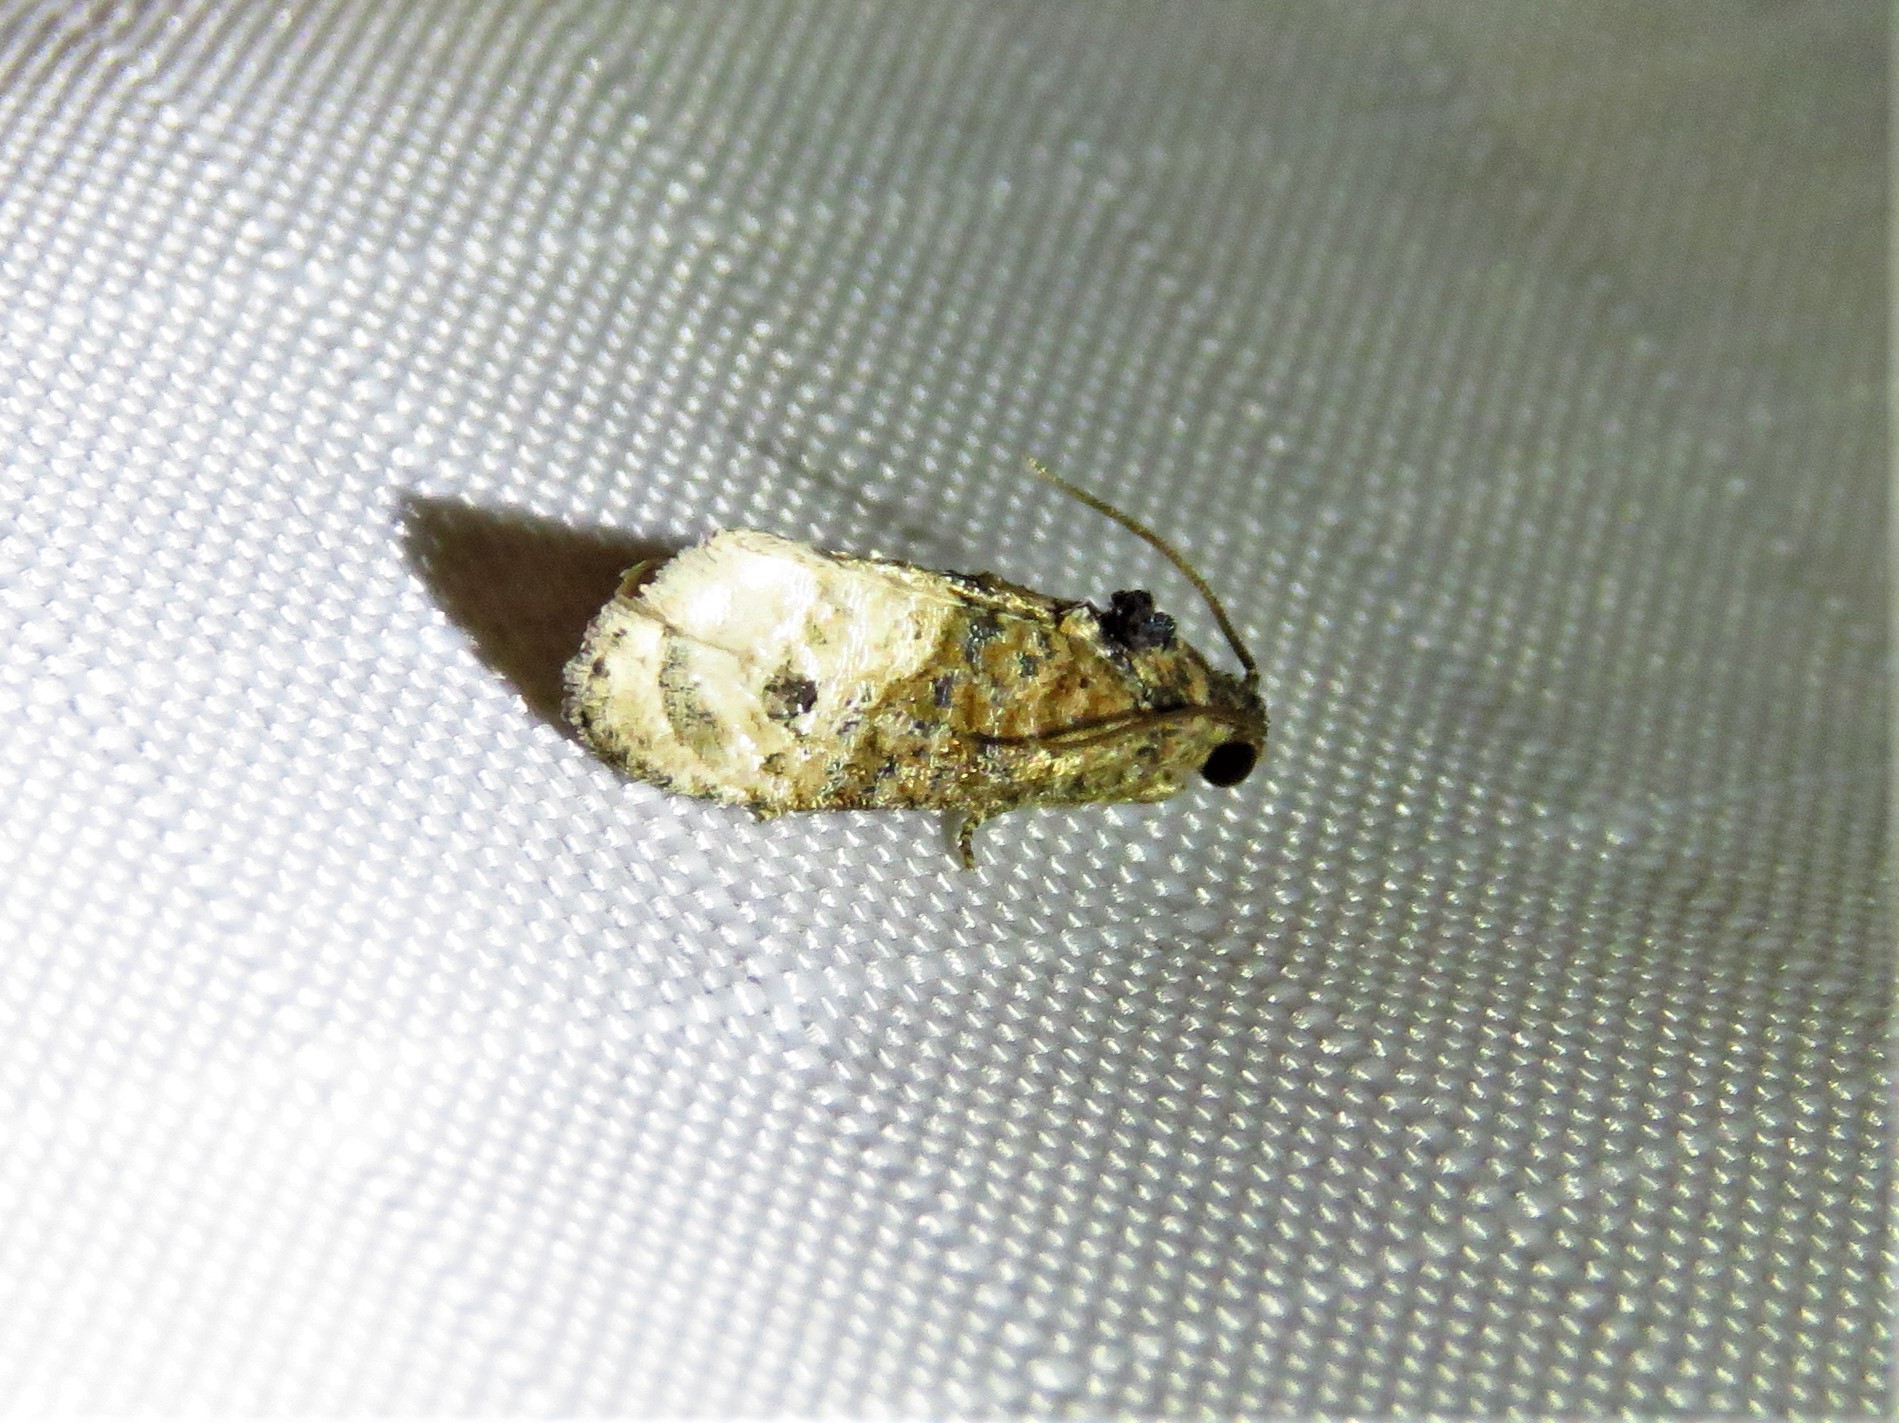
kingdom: Animalia
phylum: Arthropoda
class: Insecta
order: Lepidoptera
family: Tortricidae
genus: Ecdytolopha
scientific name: Ecdytolopha mana
